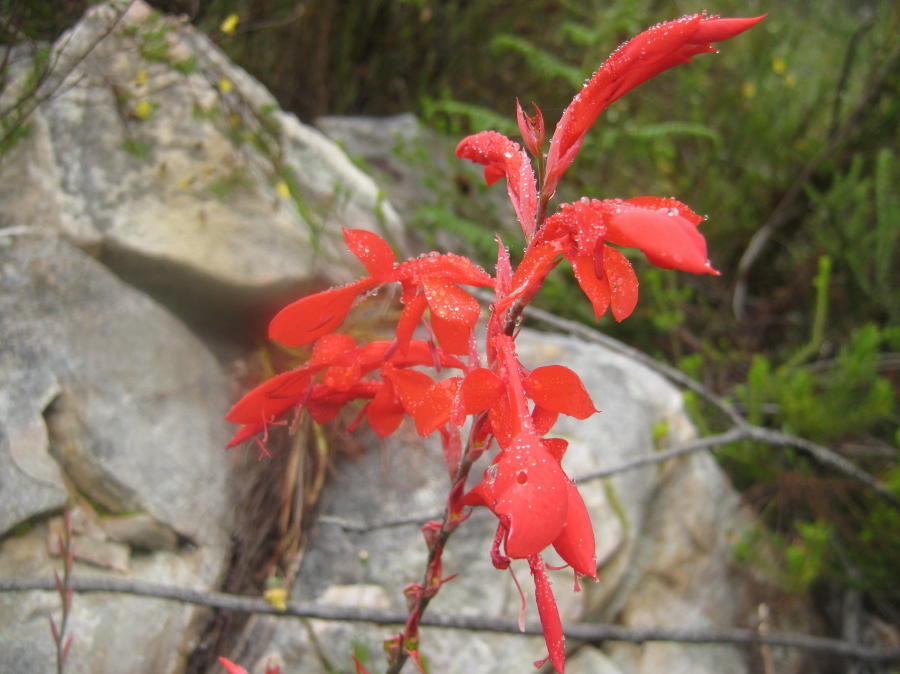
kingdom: Plantae
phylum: Tracheophyta
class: Liliopsida
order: Asparagales
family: Iridaceae
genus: Tritoniopsis
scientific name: Tritoniopsis caffra
